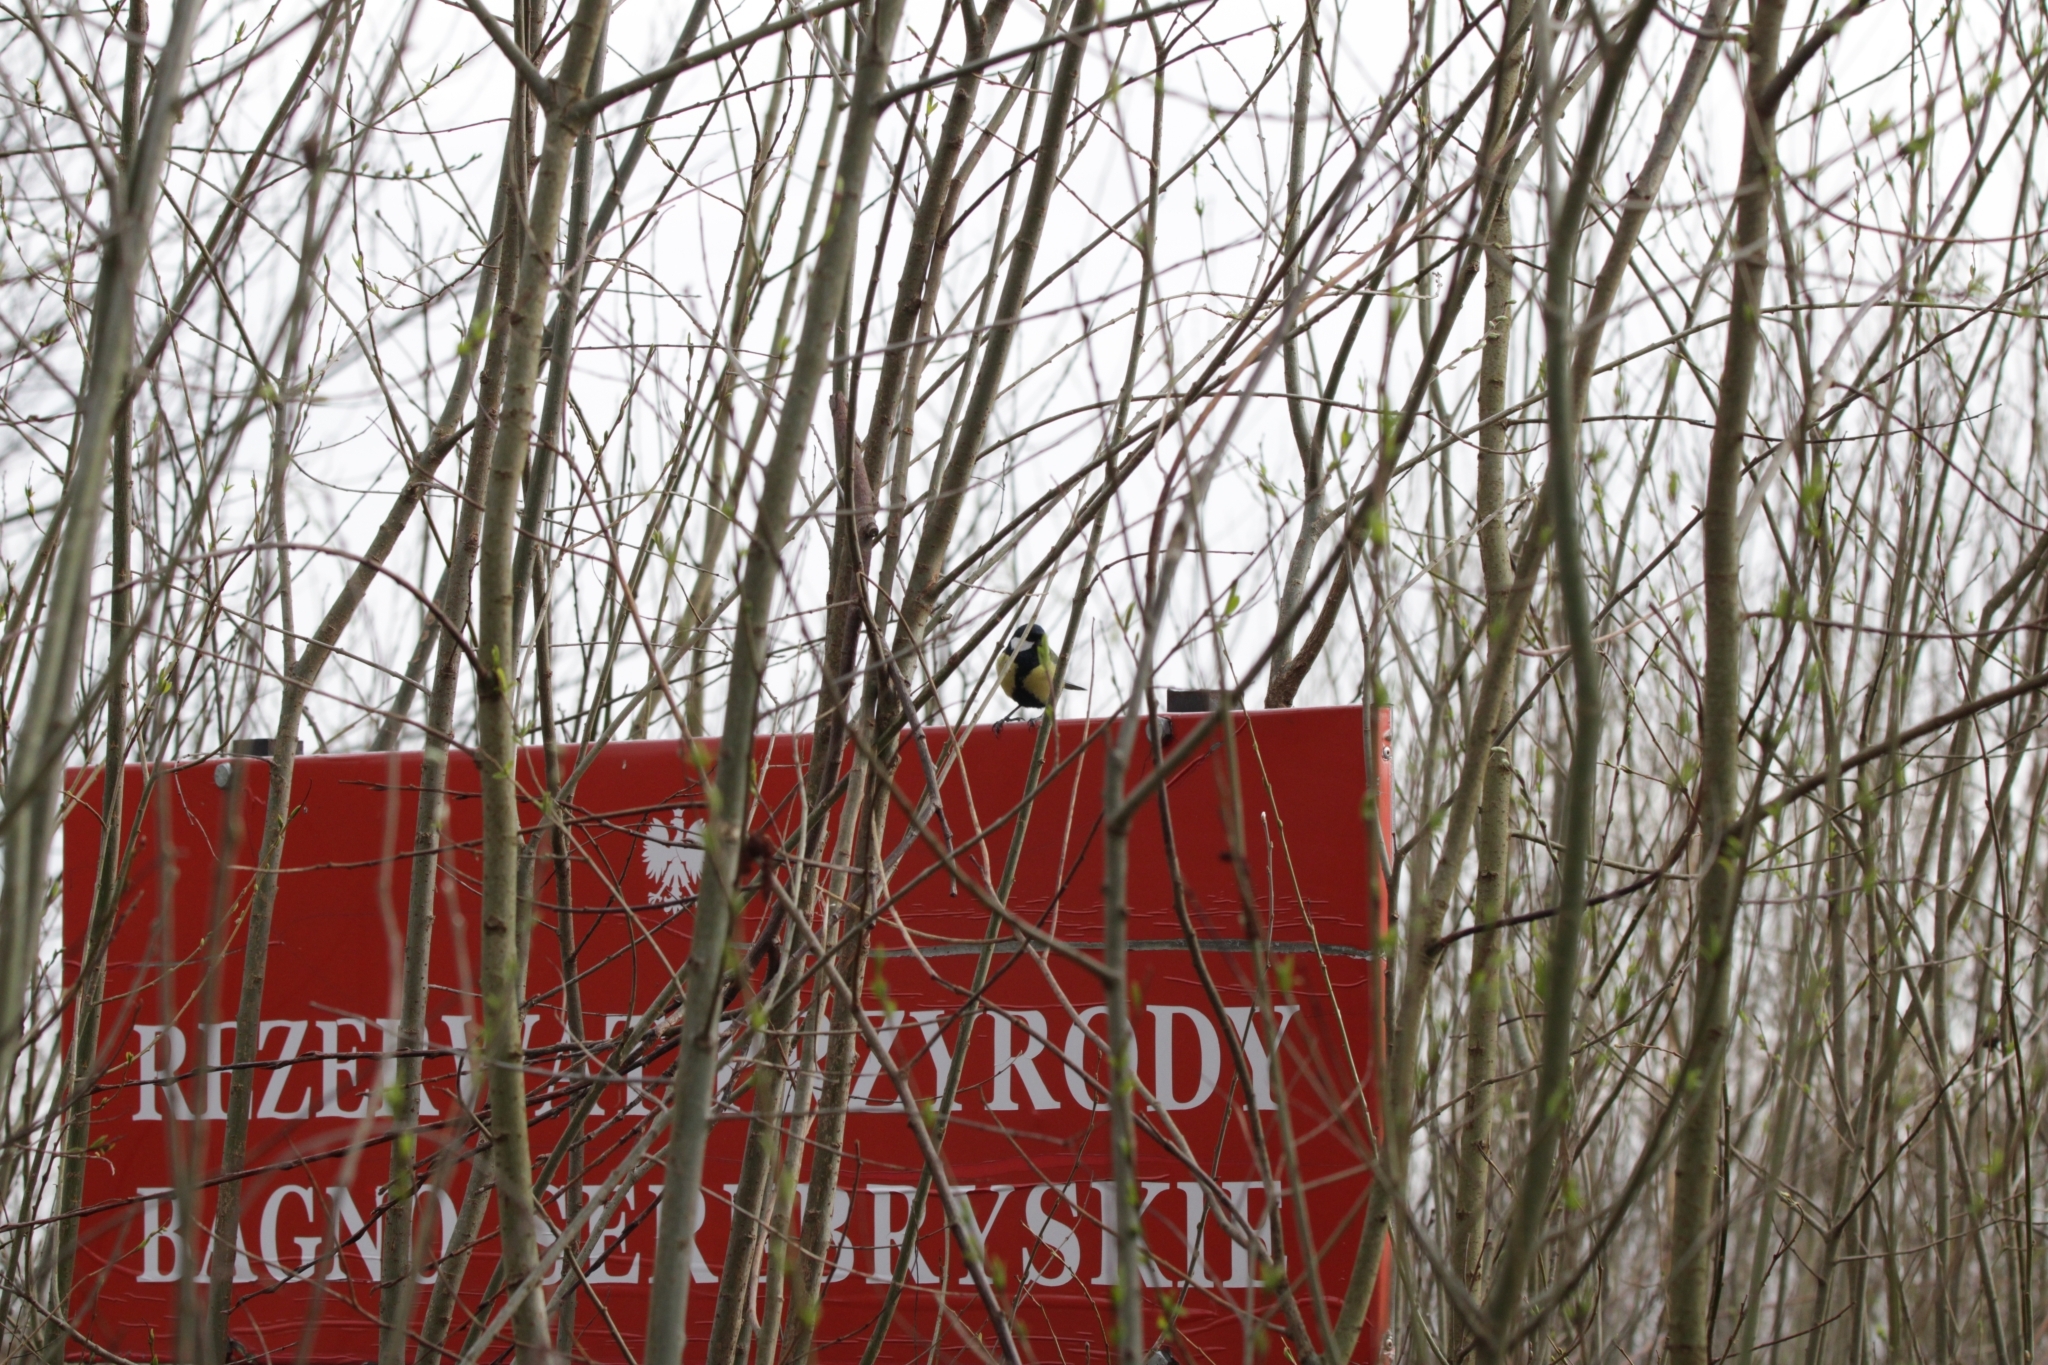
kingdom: Animalia
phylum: Chordata
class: Aves
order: Passeriformes
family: Paridae
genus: Parus
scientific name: Parus major
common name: Great tit
